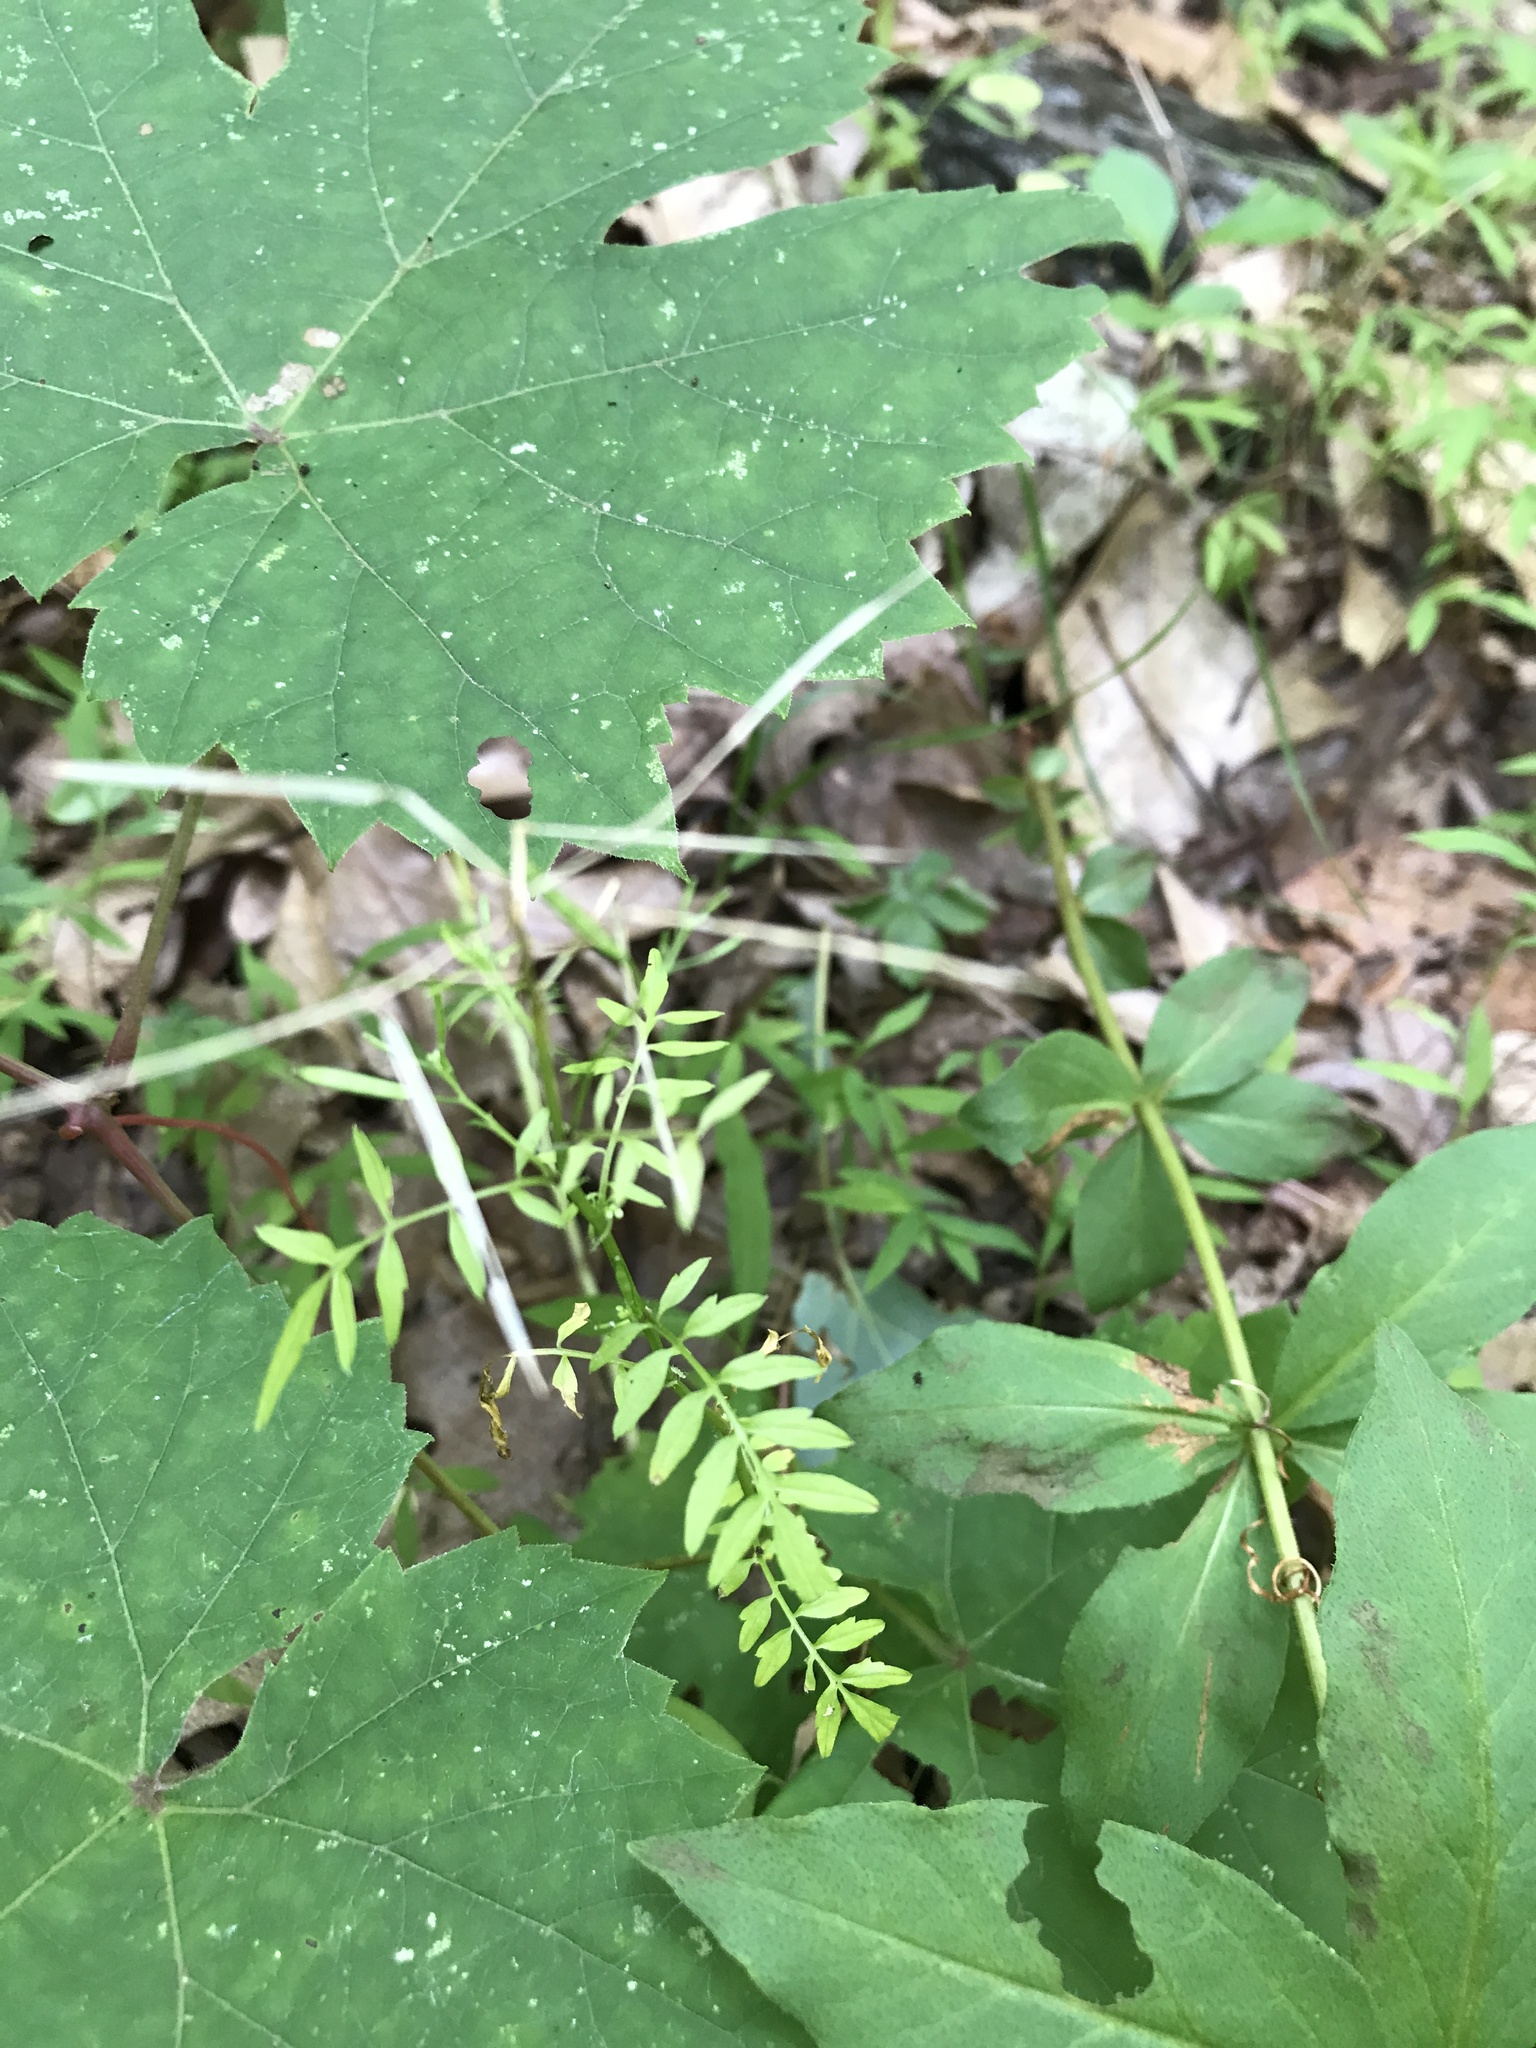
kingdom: Plantae
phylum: Tracheophyta
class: Magnoliopsida
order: Brassicales
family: Brassicaceae
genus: Cardamine
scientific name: Cardamine impatiens
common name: Narrow-leaved bitter-cress
